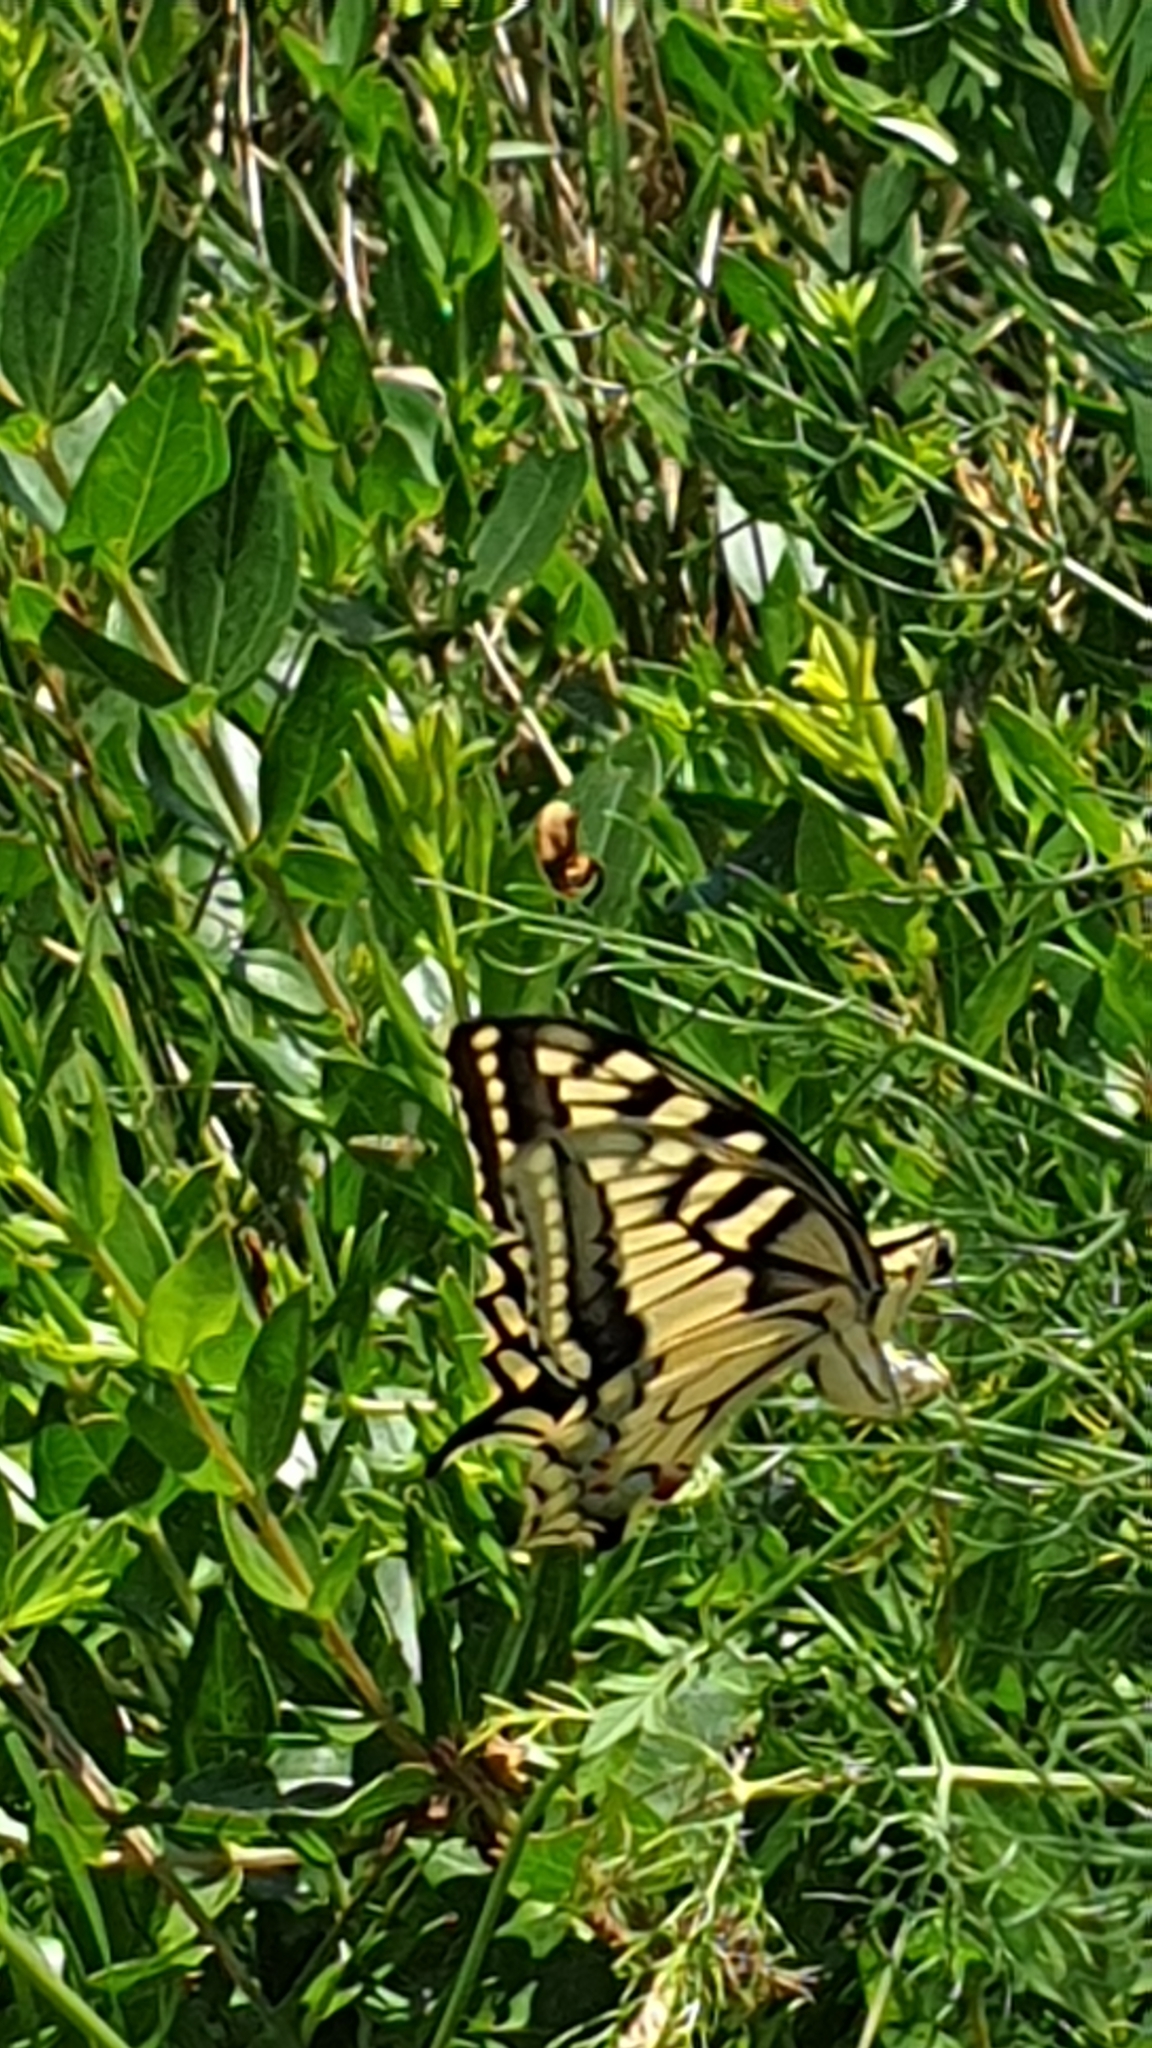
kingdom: Animalia
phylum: Arthropoda
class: Insecta
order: Lepidoptera
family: Papilionidae
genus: Papilio
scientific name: Papilio machaon
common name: Swallowtail
